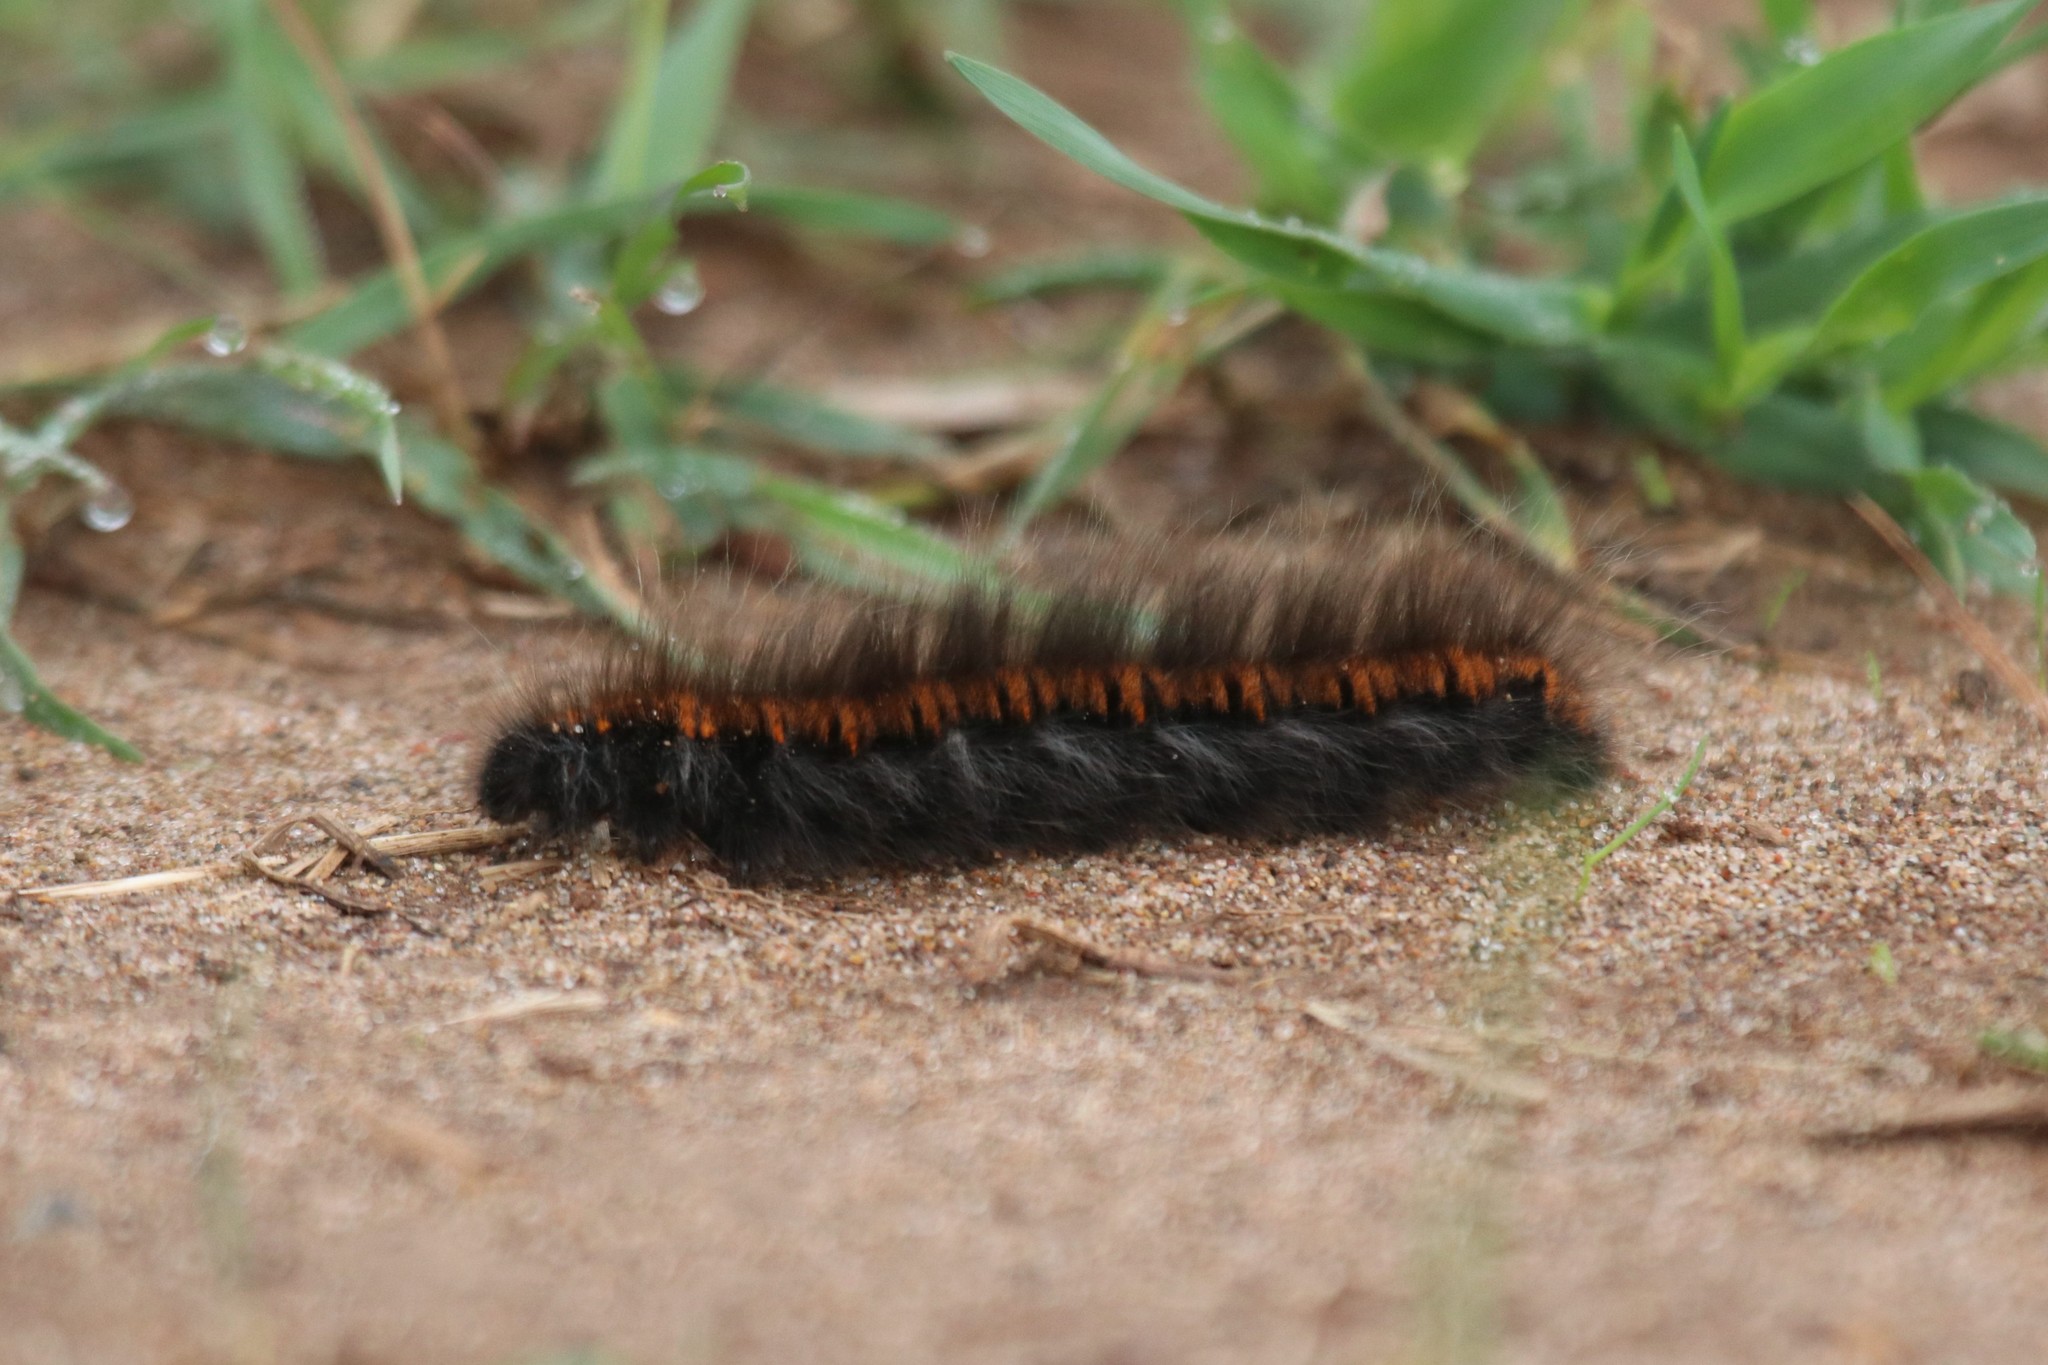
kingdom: Animalia
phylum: Arthropoda
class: Insecta
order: Lepidoptera
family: Lasiocampidae
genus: Macrothylacia
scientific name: Macrothylacia rubi
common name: Fox moth
